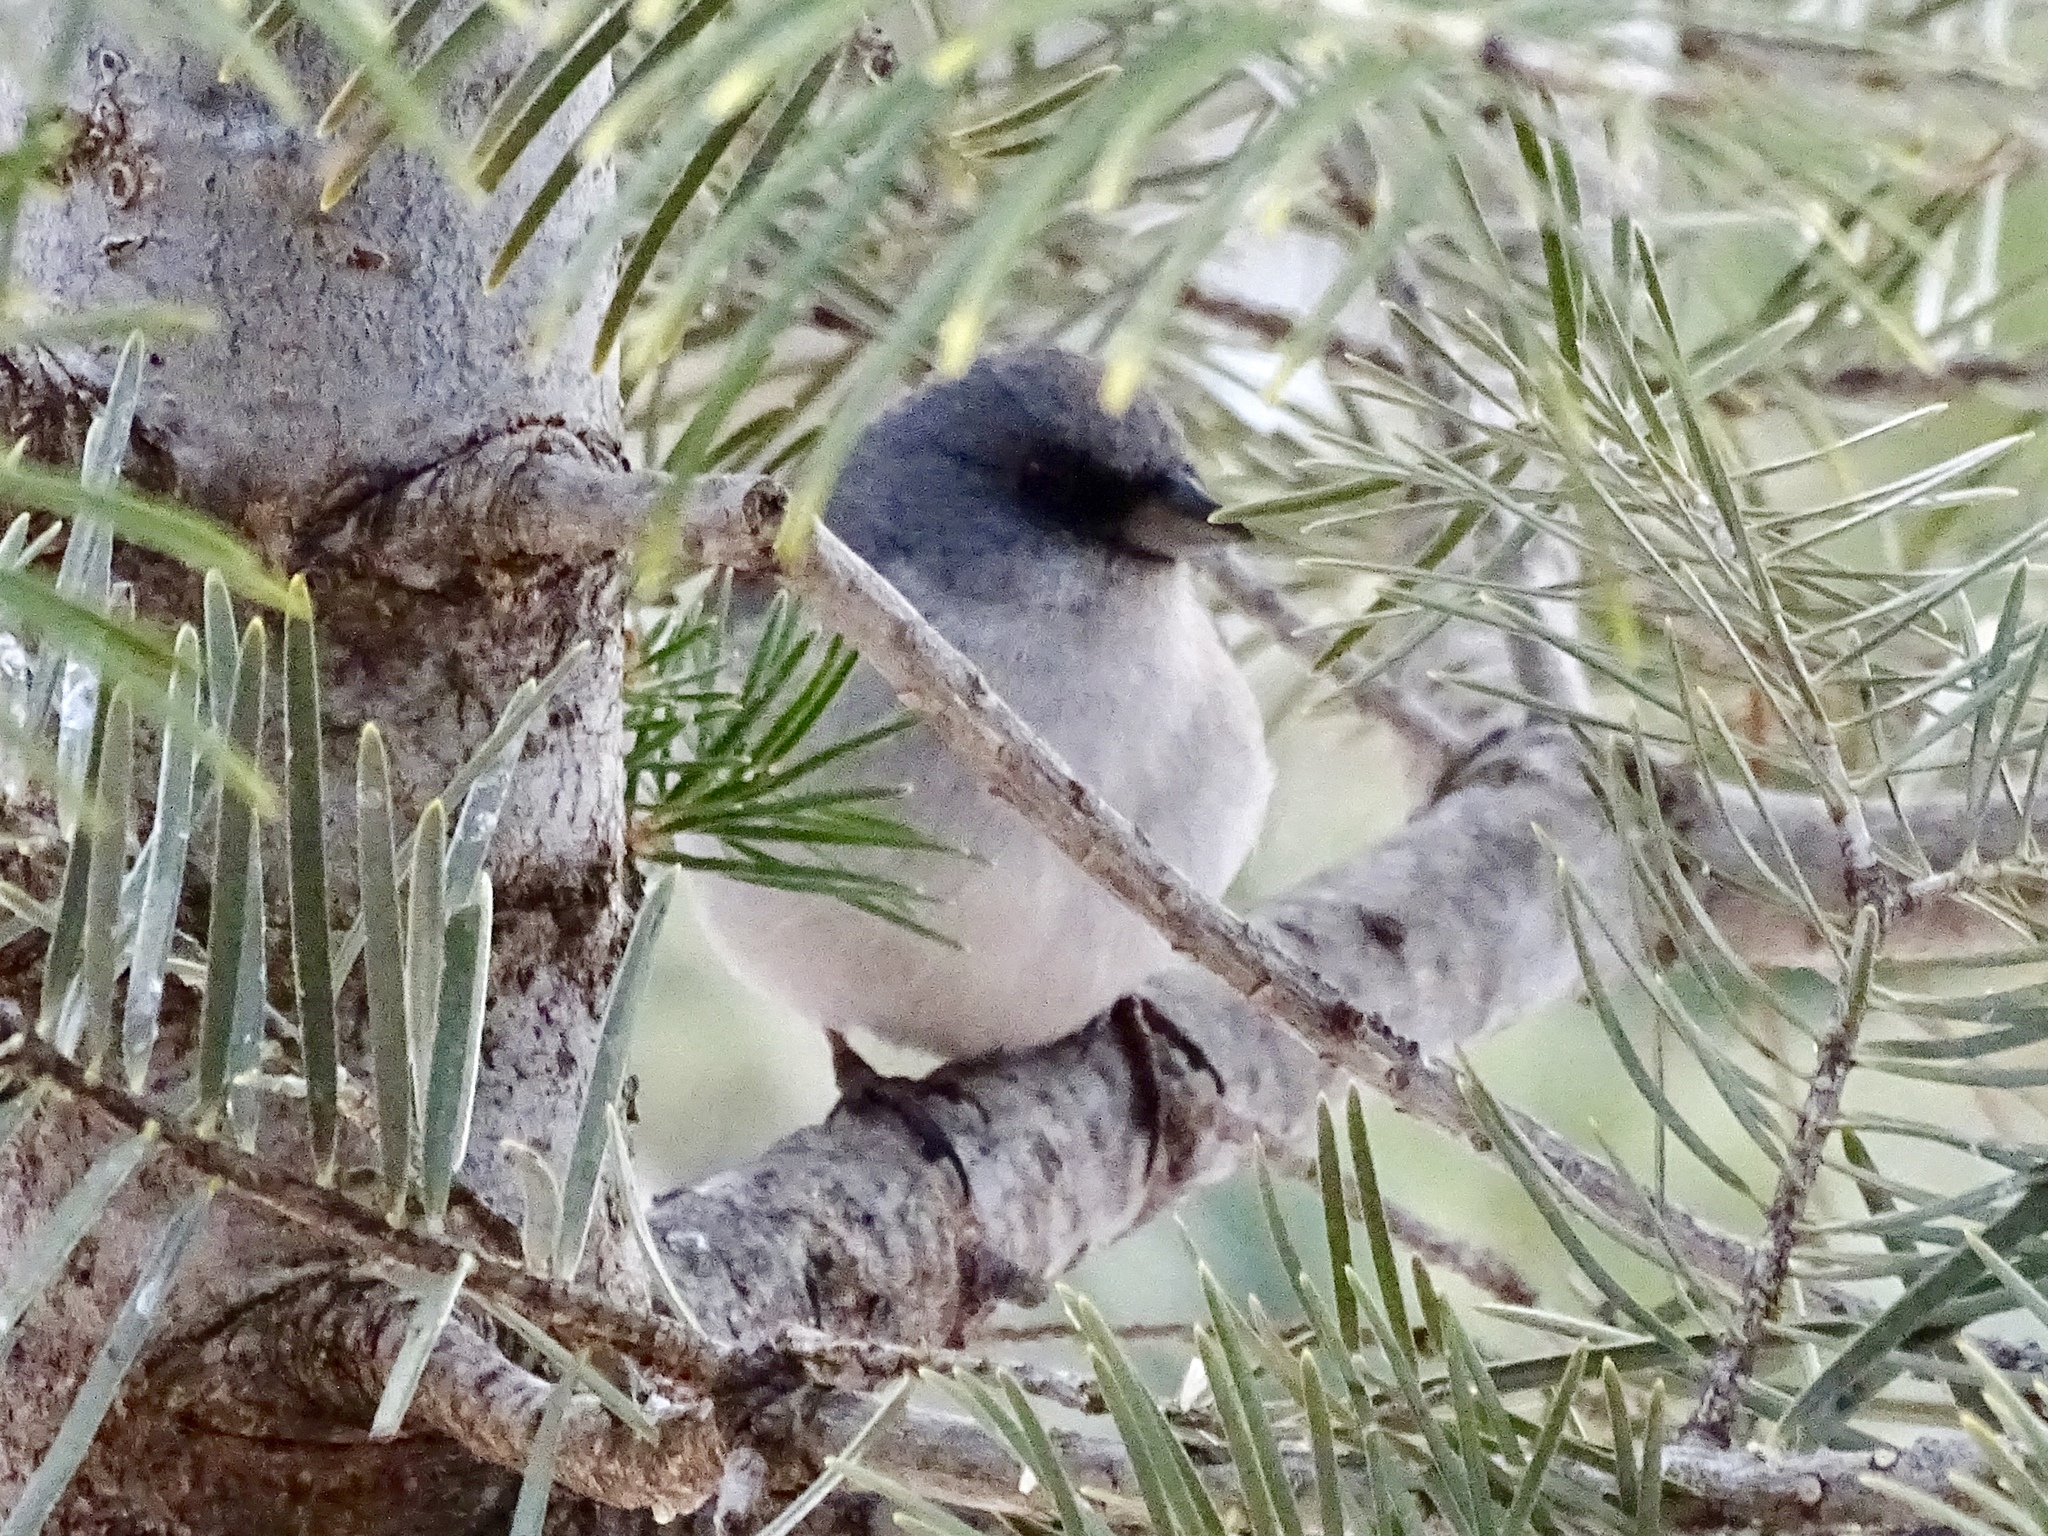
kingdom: Animalia
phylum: Chordata
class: Aves
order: Passeriformes
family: Passerellidae
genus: Junco
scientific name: Junco
